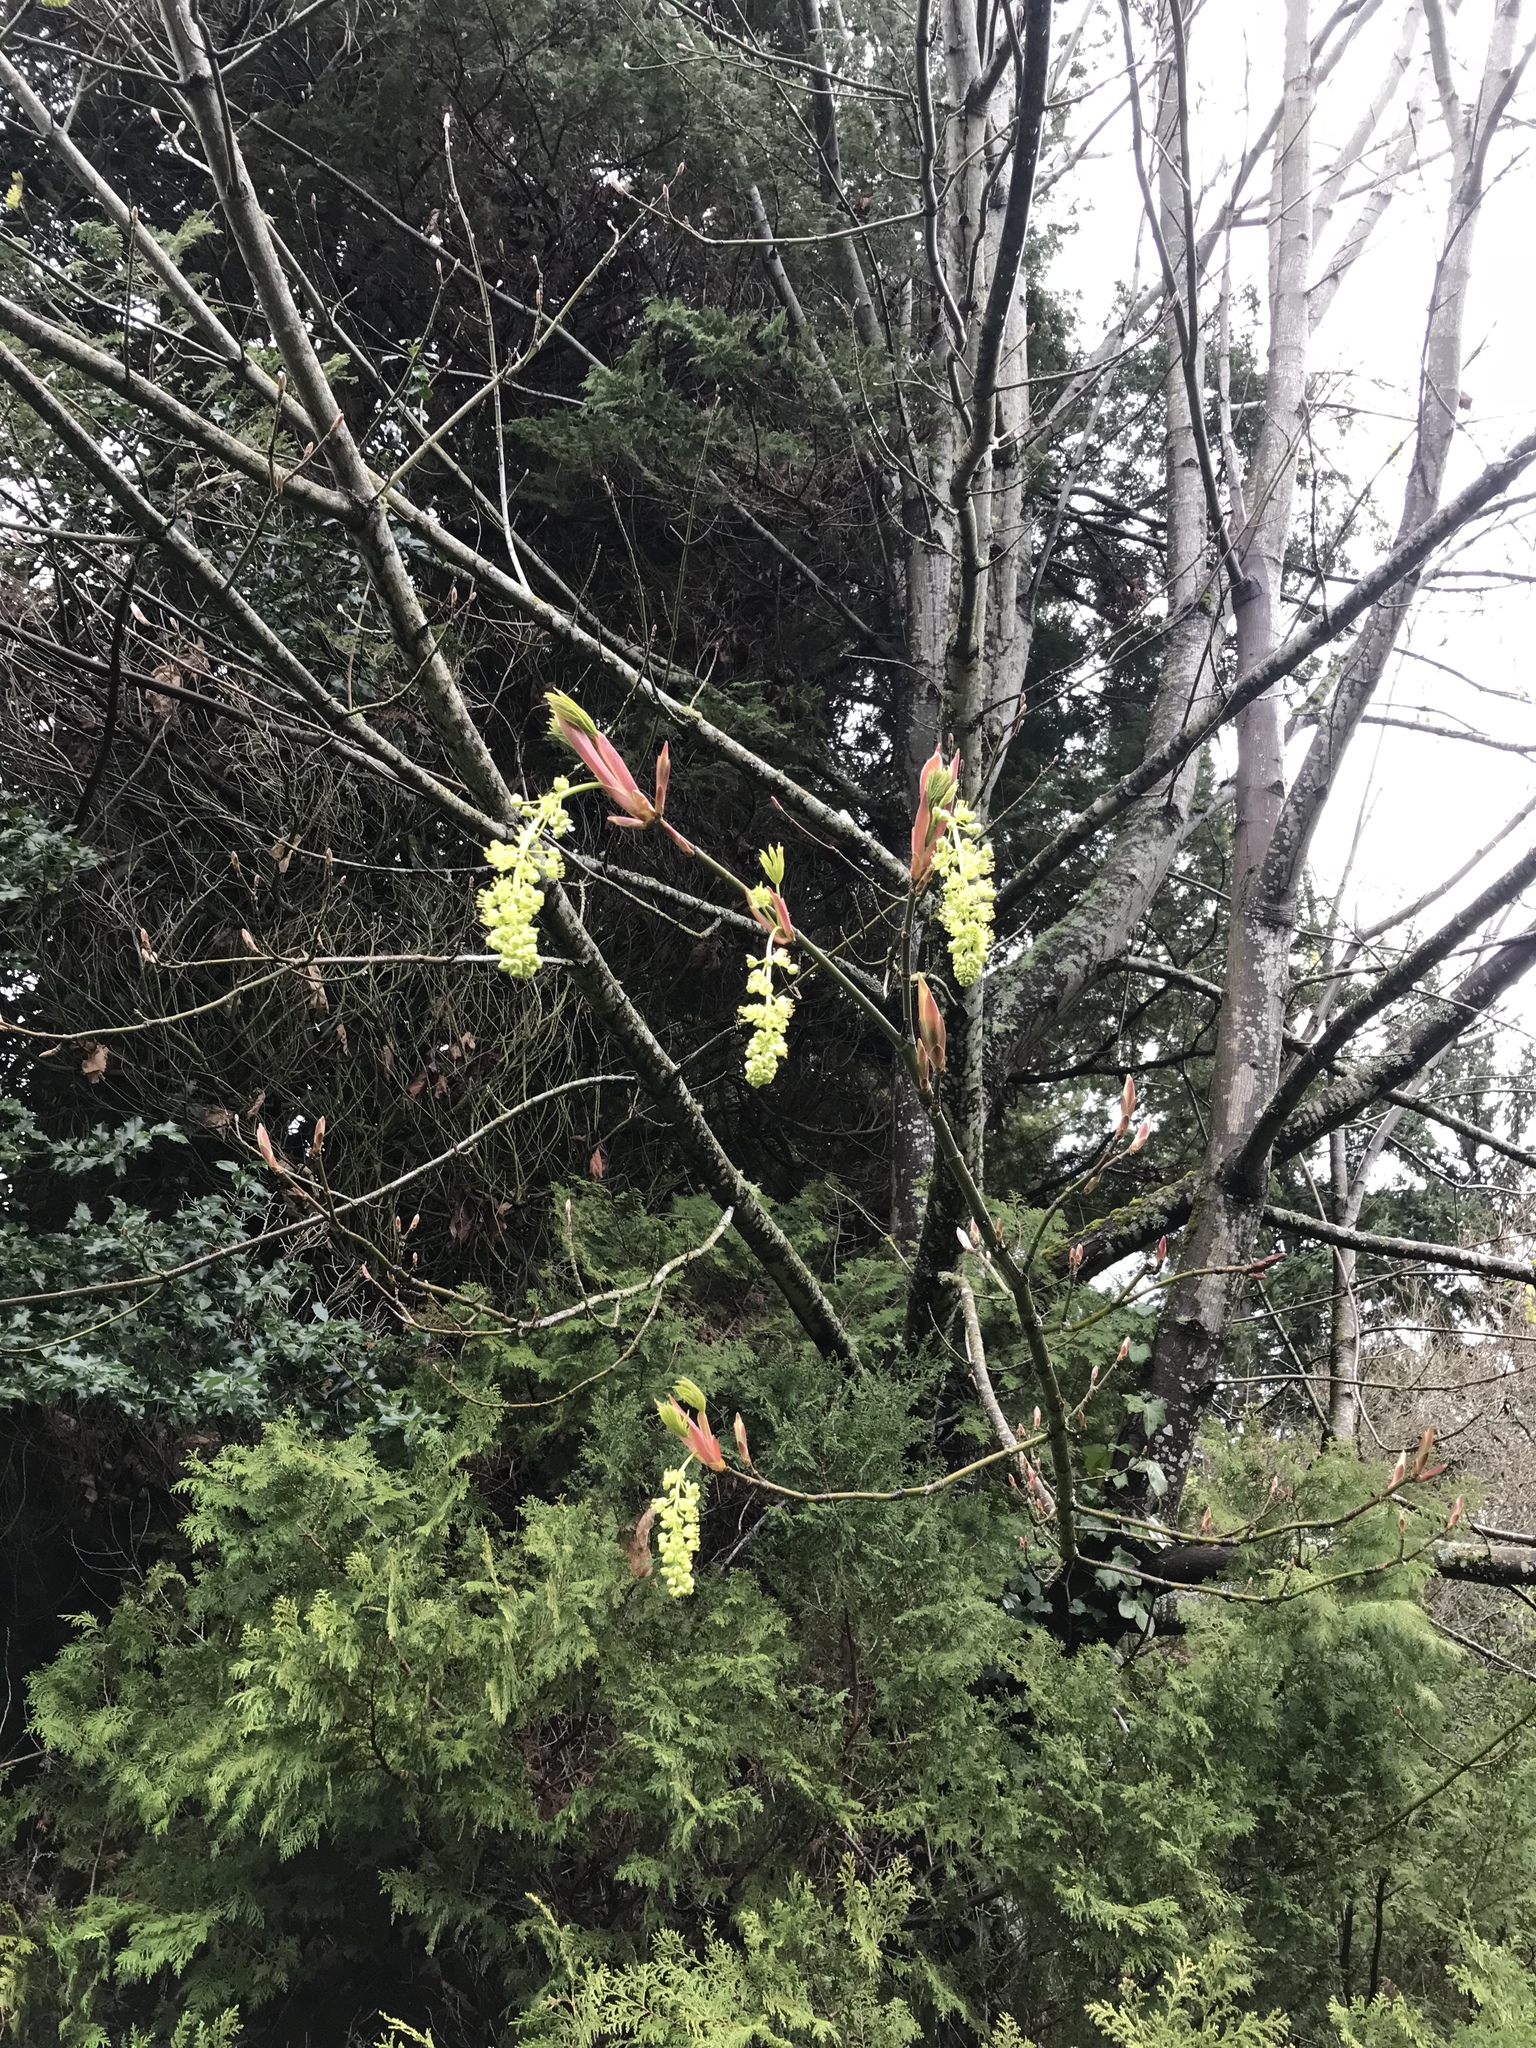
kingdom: Plantae
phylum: Tracheophyta
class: Magnoliopsida
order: Sapindales
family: Sapindaceae
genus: Acer
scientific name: Acer macrophyllum
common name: Oregon maple
